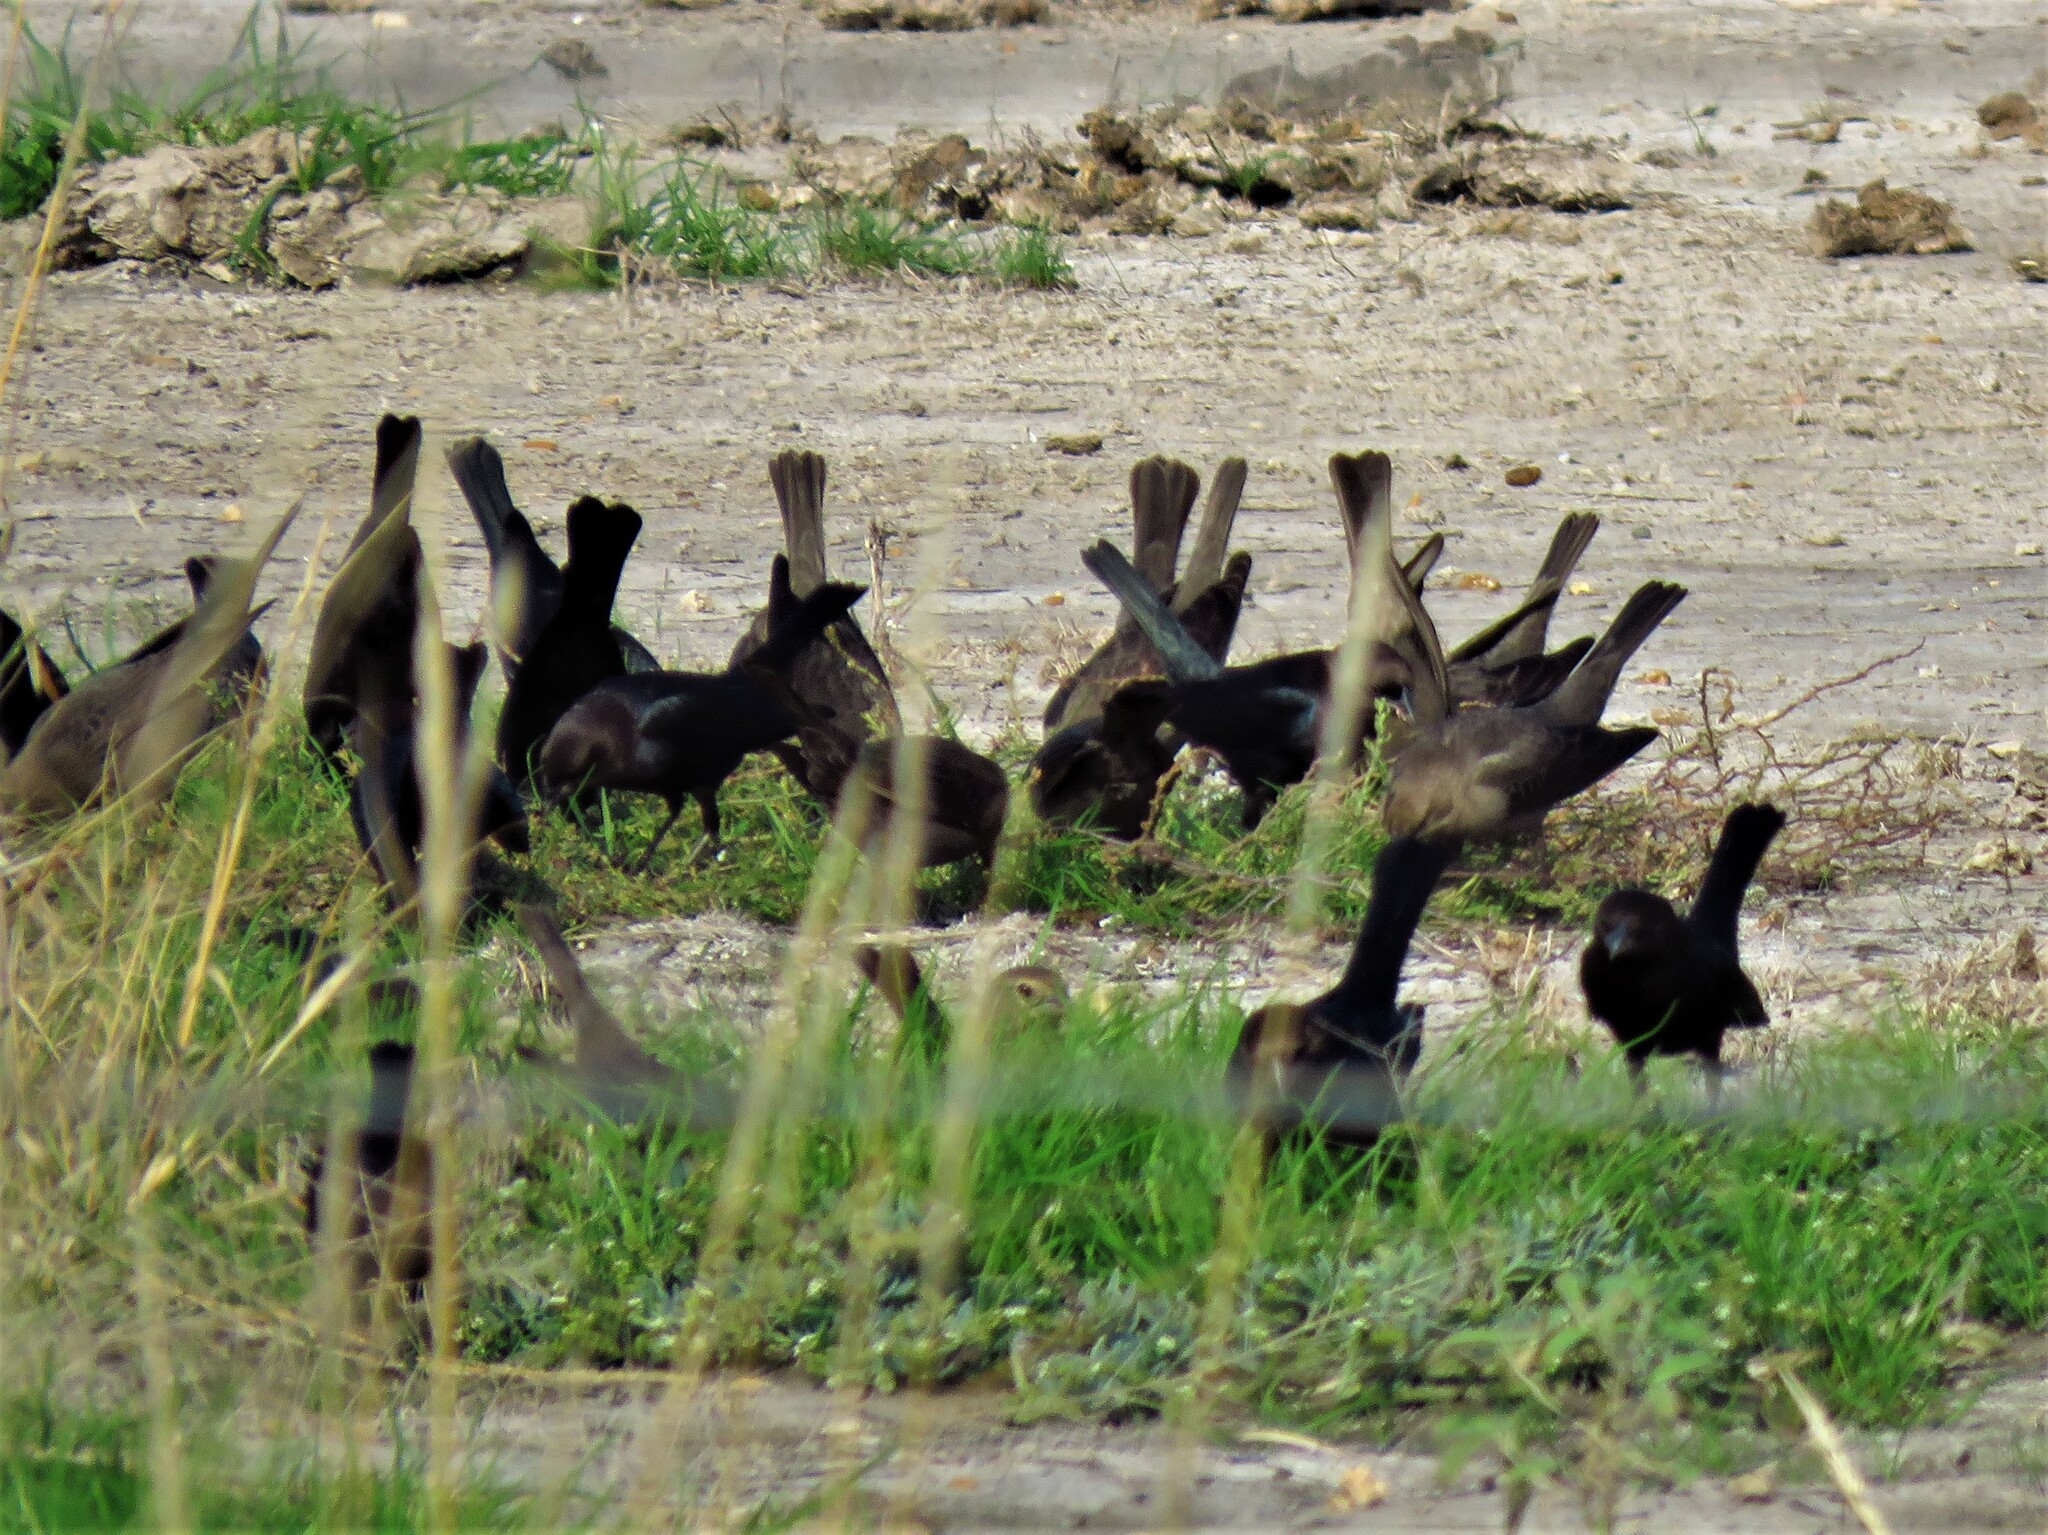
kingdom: Animalia
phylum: Chordata
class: Aves
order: Passeriformes
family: Icteridae
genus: Molothrus
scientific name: Molothrus ater
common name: Brown-headed cowbird
